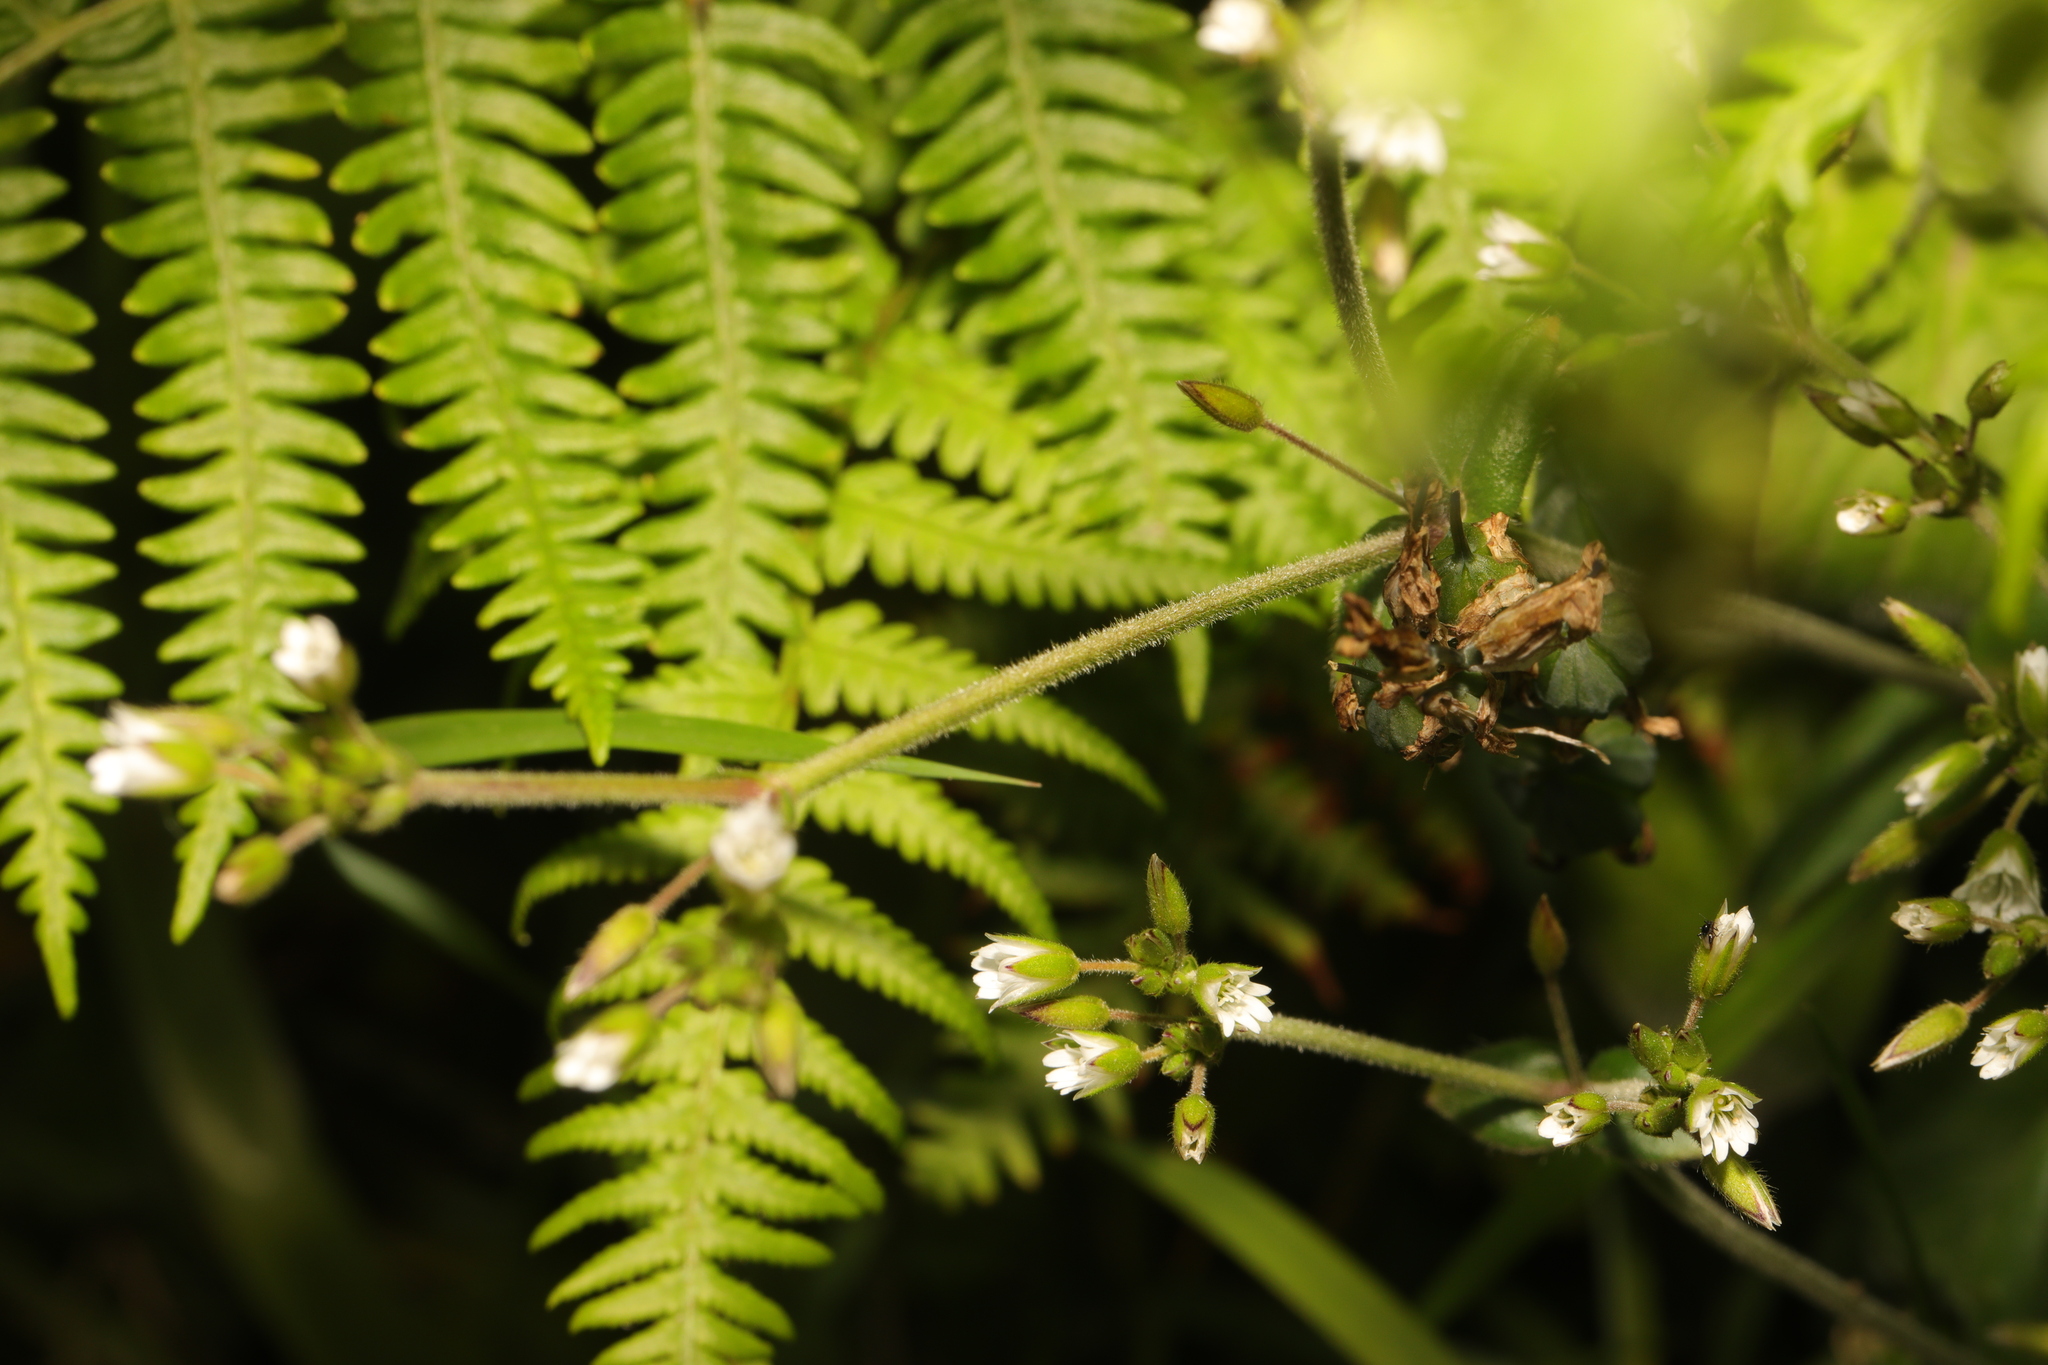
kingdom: Plantae
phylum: Tracheophyta
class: Magnoliopsida
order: Caryophyllales
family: Caryophyllaceae
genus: Cerastium
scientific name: Cerastium fontanum
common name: Common mouse-ear
